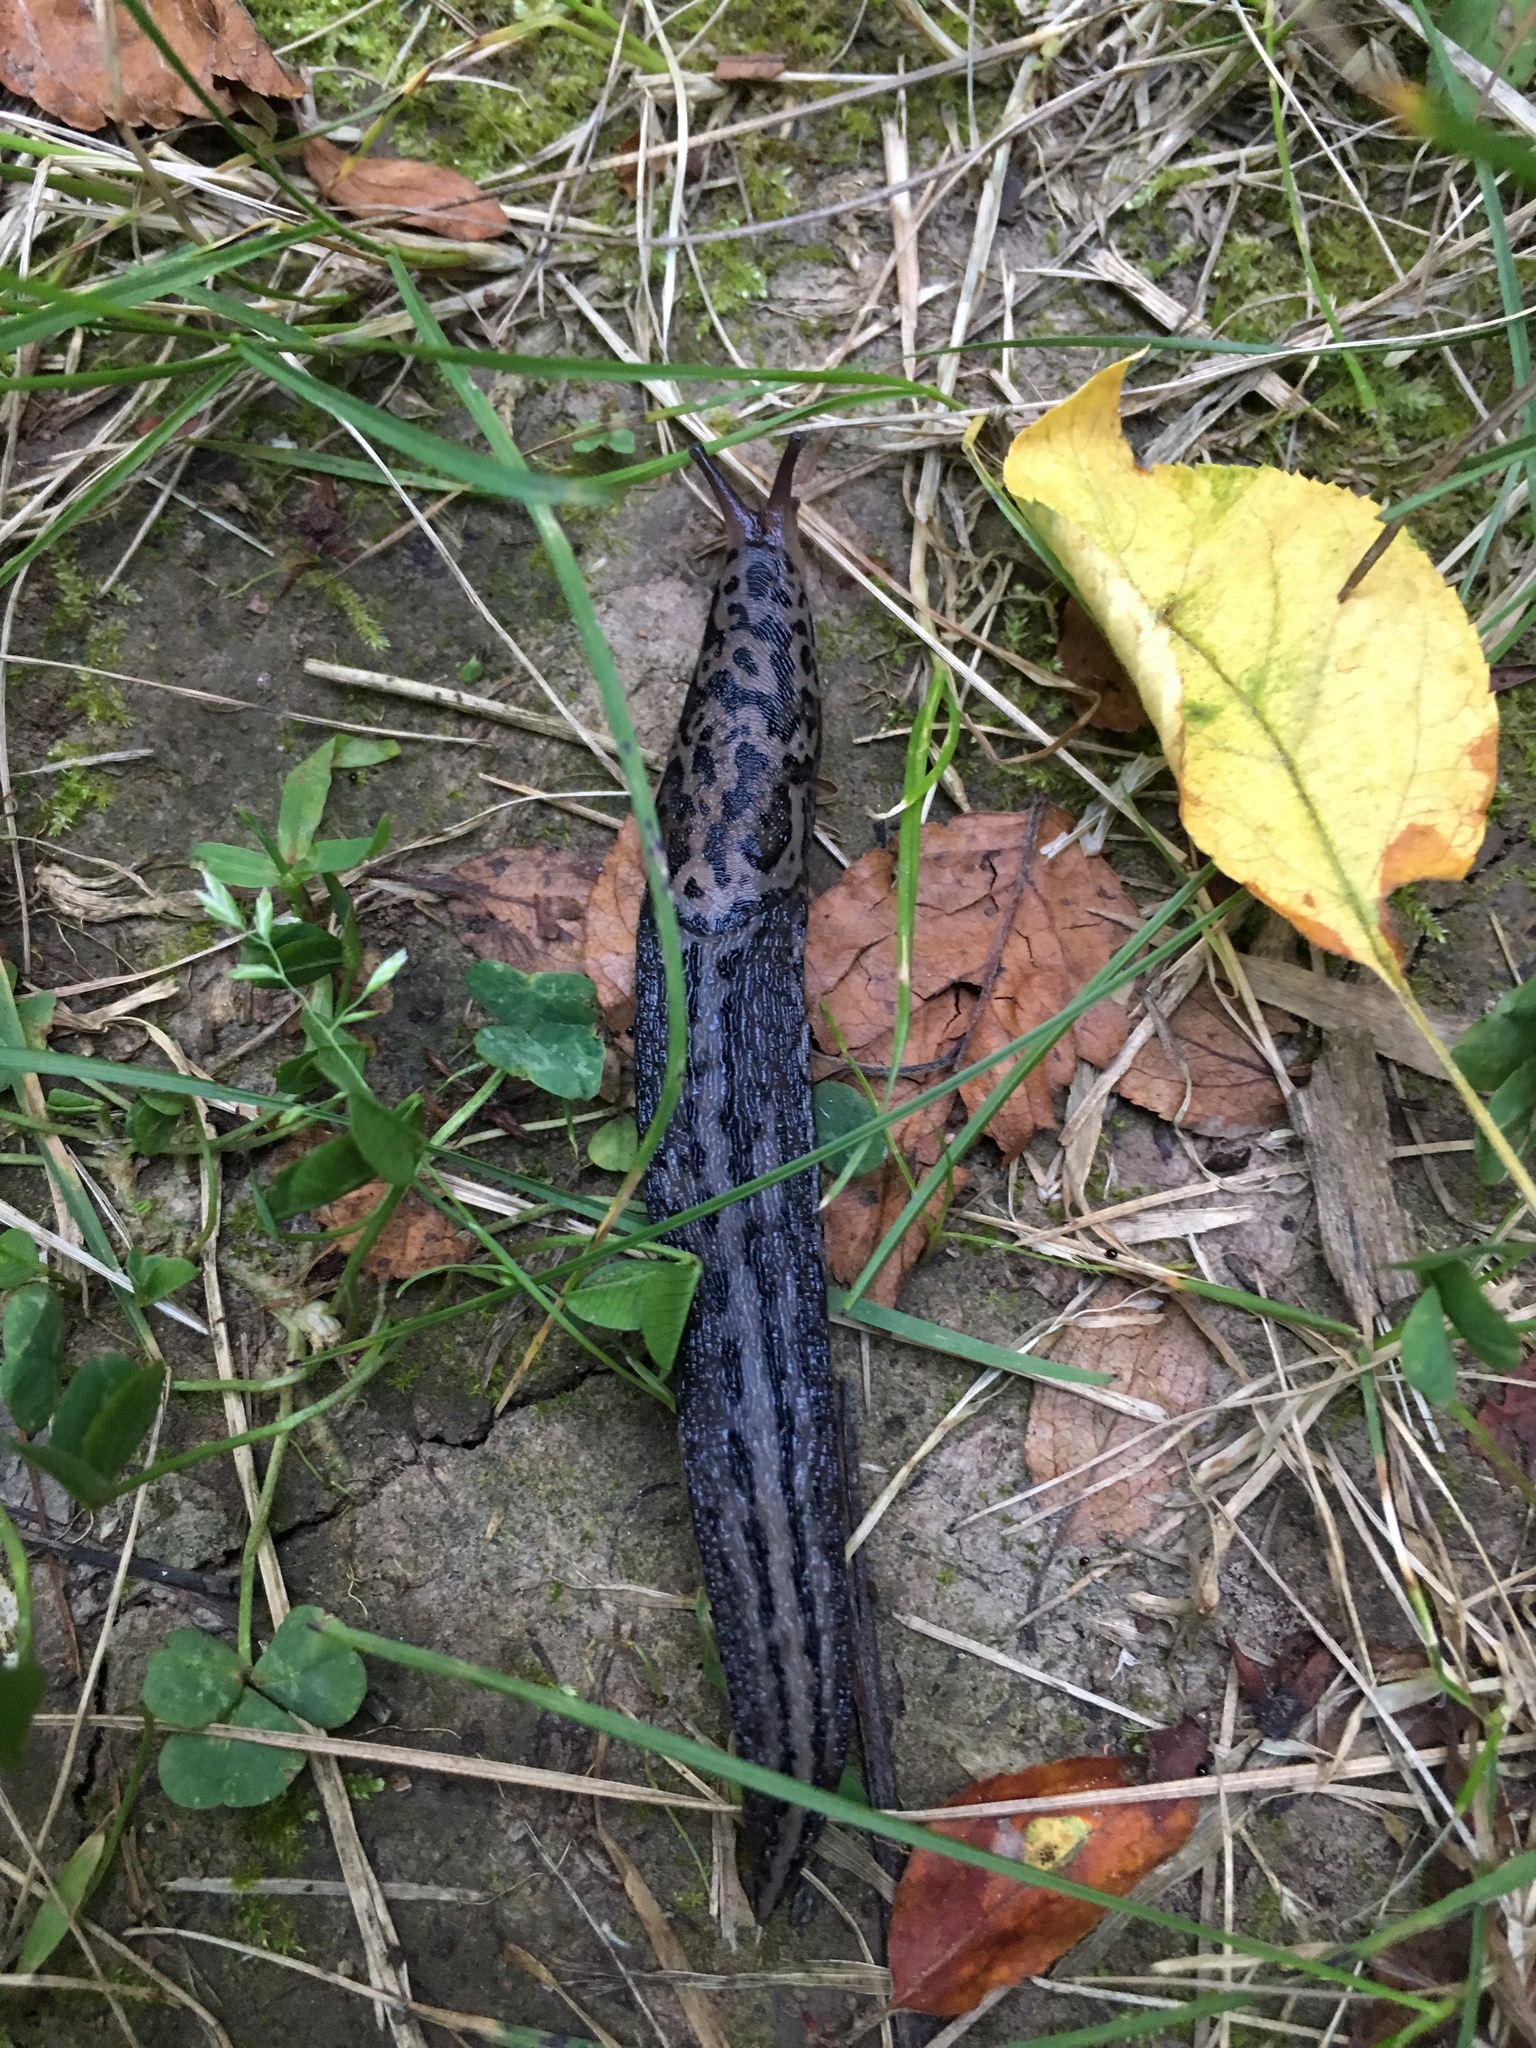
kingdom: Animalia
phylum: Mollusca
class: Gastropoda
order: Stylommatophora
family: Limacidae
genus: Limax
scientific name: Limax maximus
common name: Great grey slug
